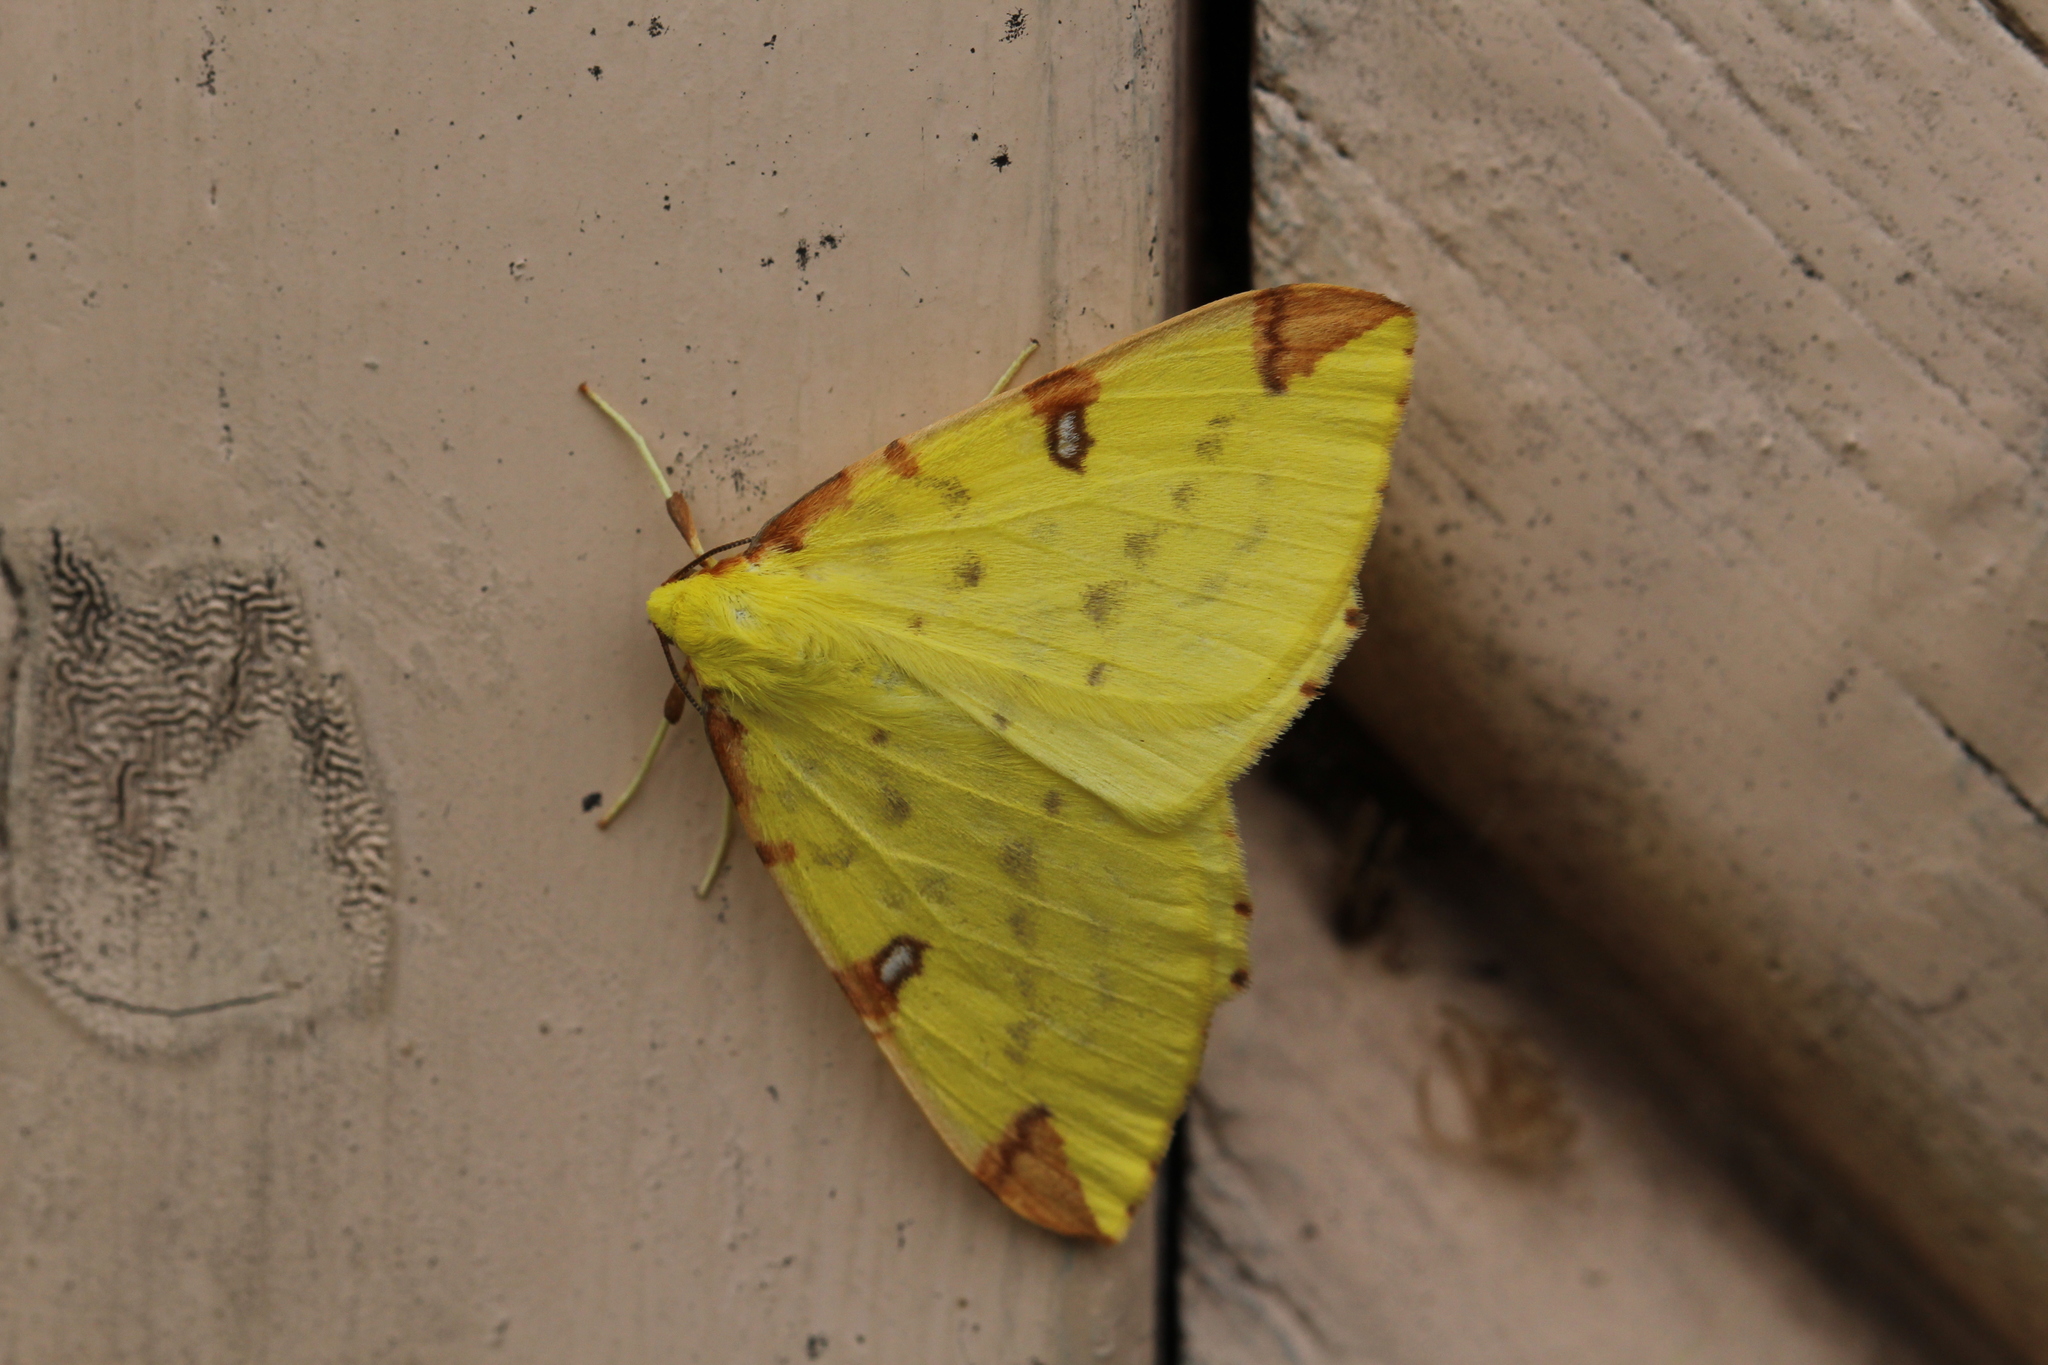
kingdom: Animalia
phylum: Arthropoda
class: Insecta
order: Lepidoptera
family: Geometridae
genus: Opisthograptis
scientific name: Opisthograptis luteolata
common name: Brimstone moth
